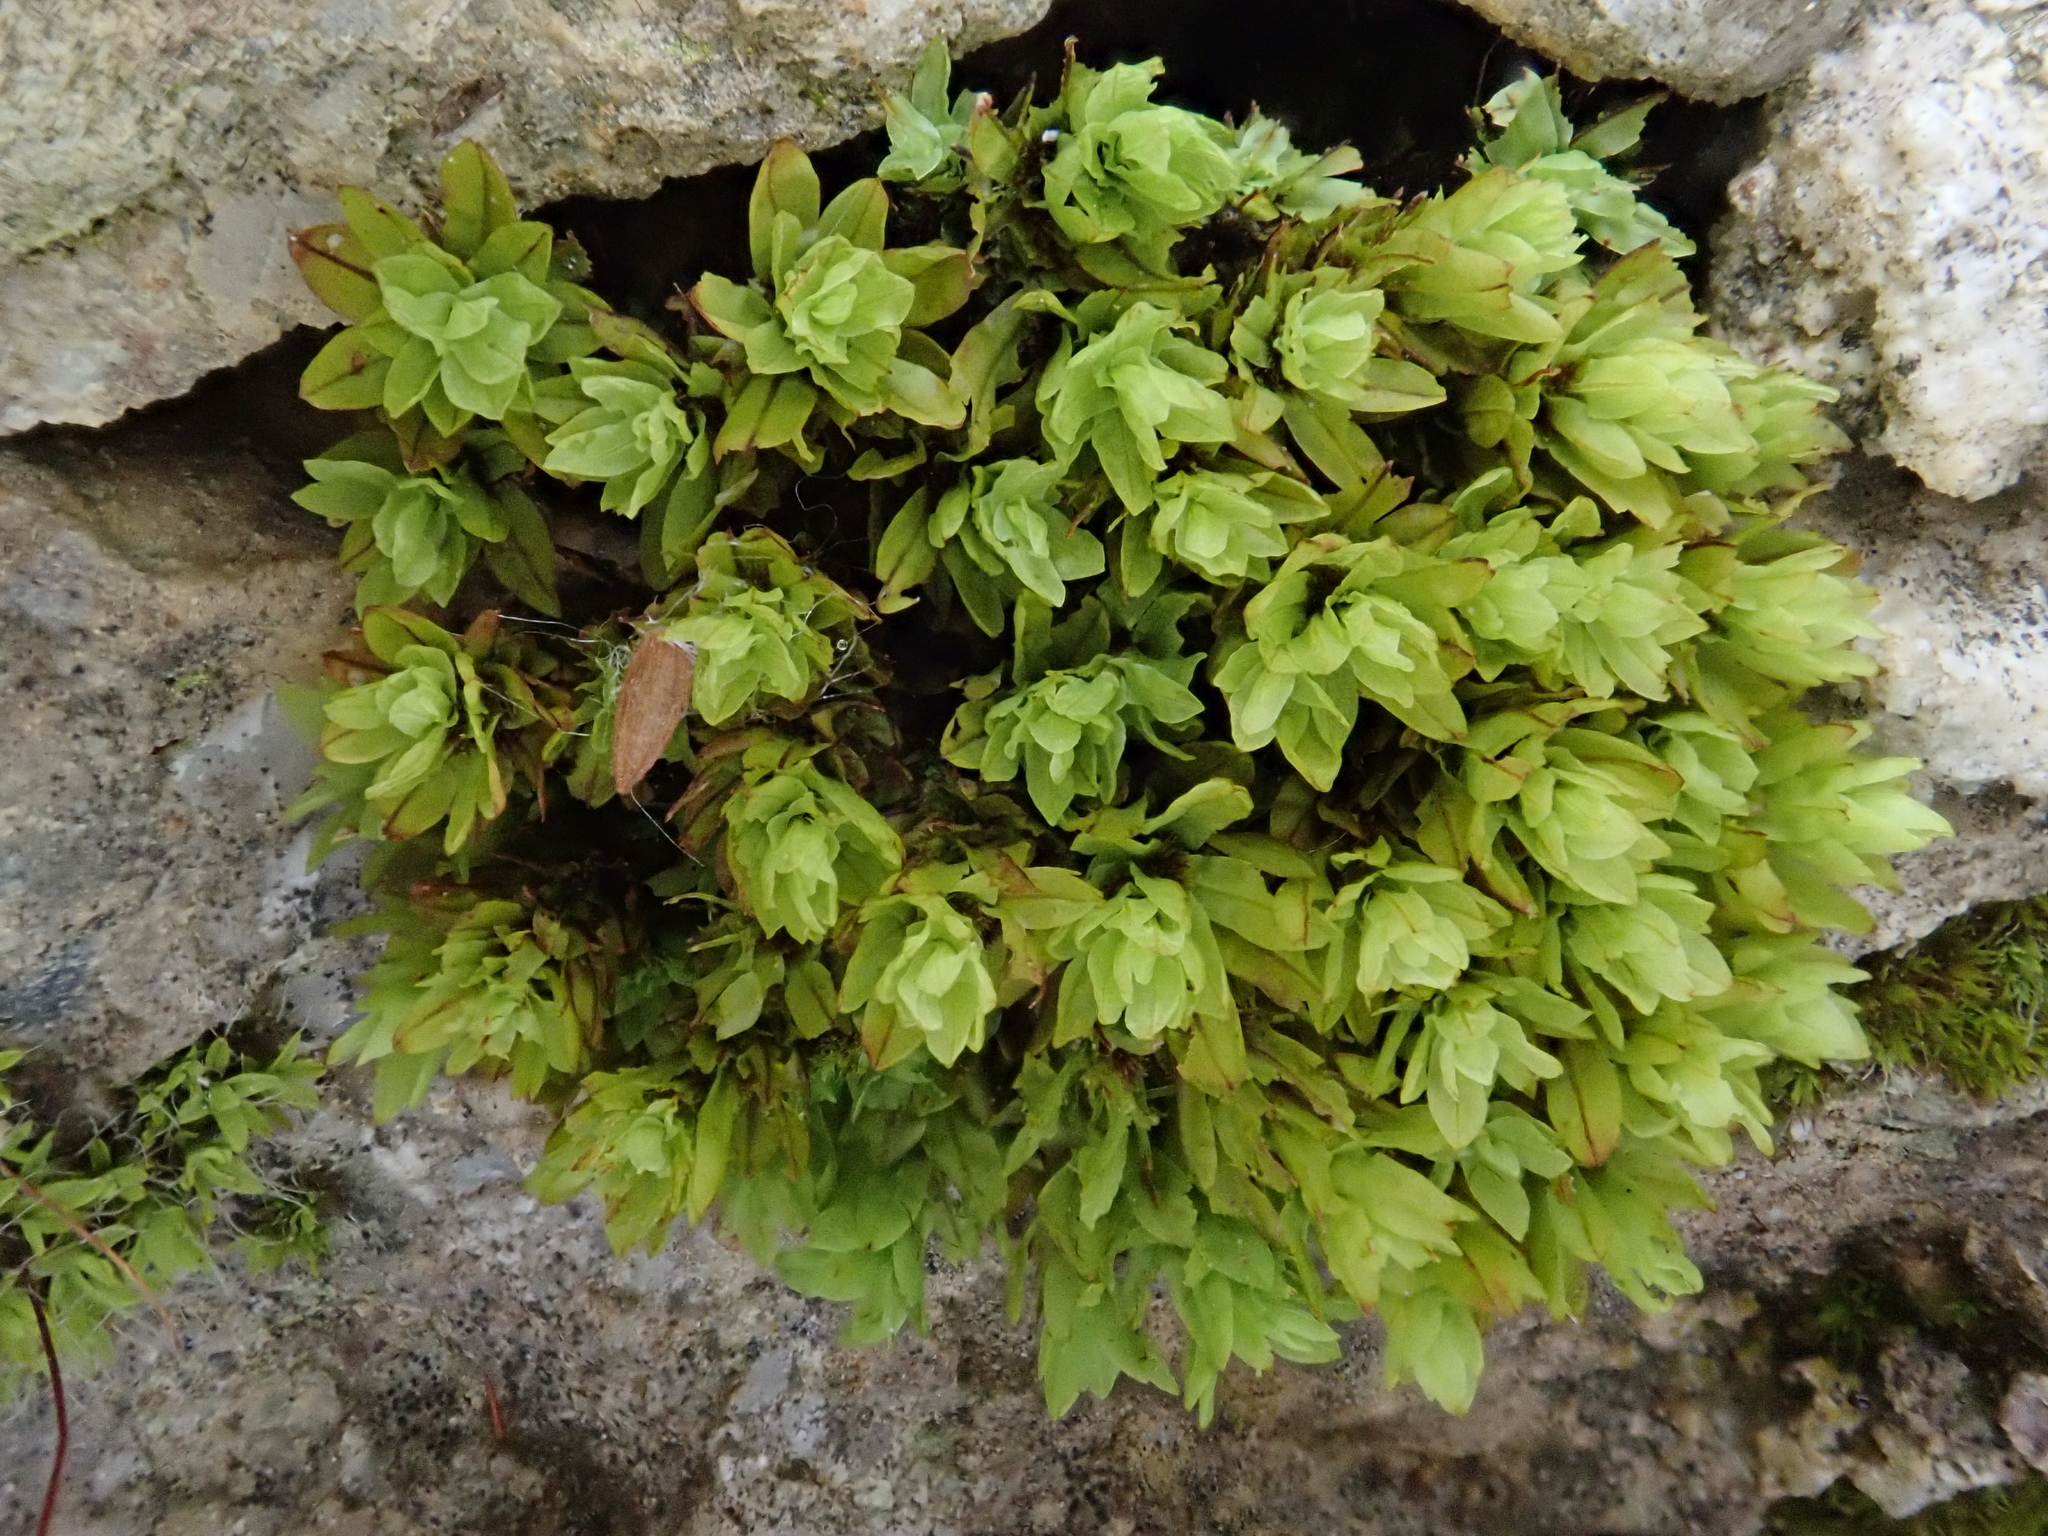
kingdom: Plantae
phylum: Bryophyta
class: Bryopsida
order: Encalyptales
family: Encalyptaceae
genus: Encalypta
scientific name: Encalypta streptocarpa
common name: Spiral extinguisher-moss
